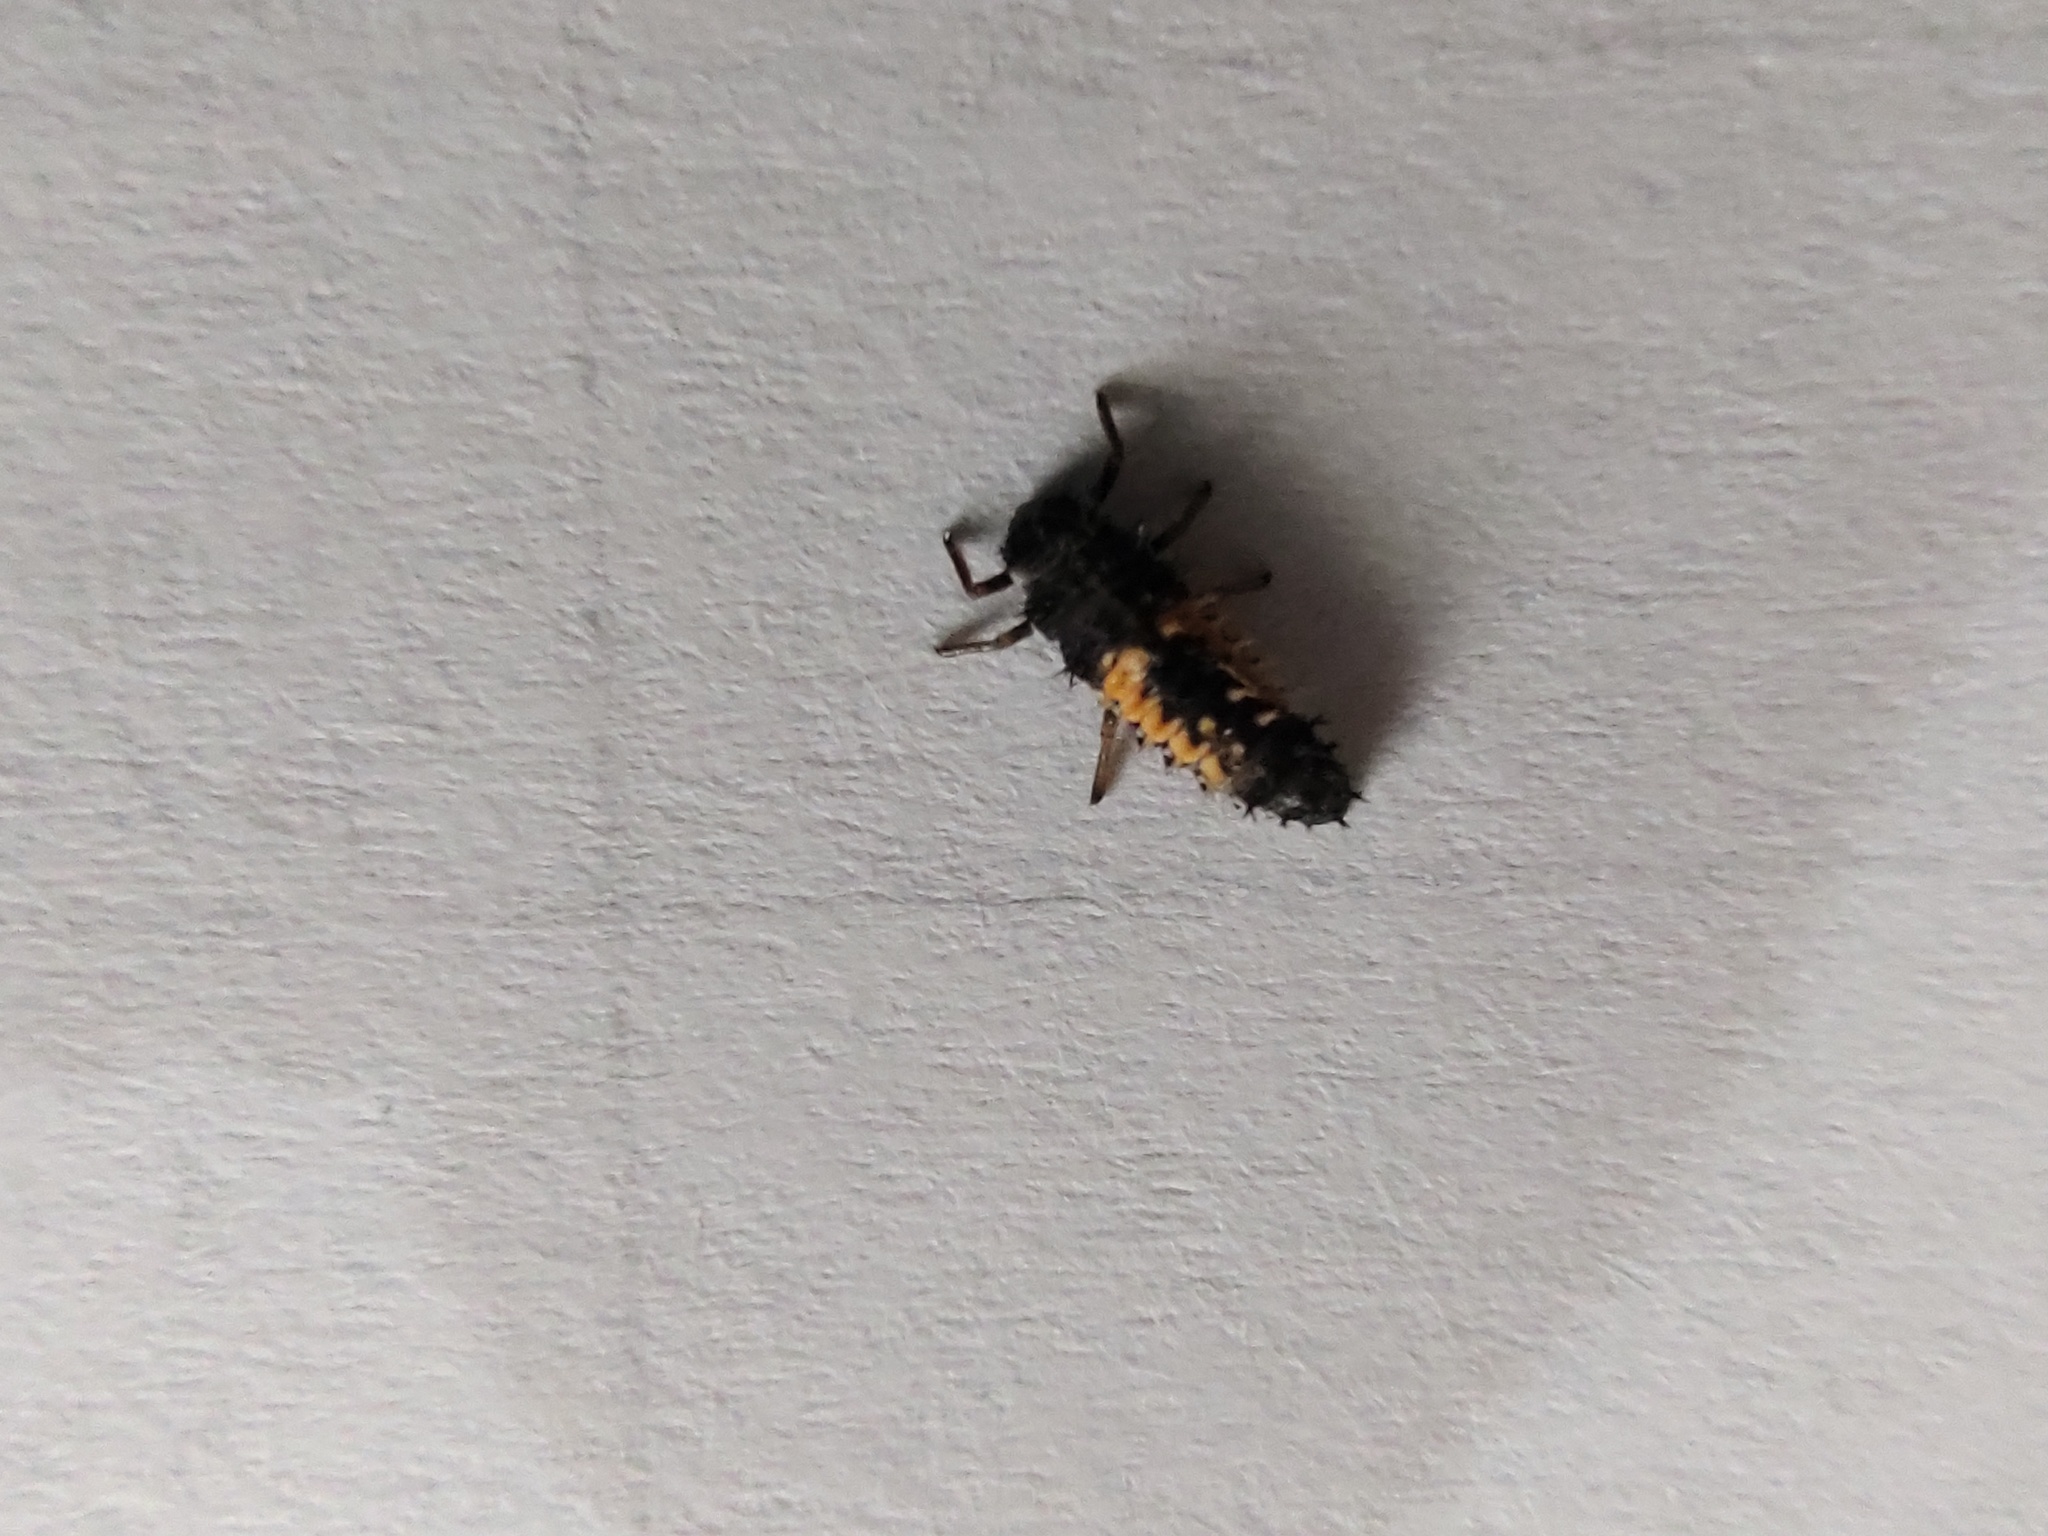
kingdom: Animalia
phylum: Arthropoda
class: Insecta
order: Coleoptera
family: Coccinellidae
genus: Harmonia
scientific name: Harmonia axyridis
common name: Harlequin ladybird
